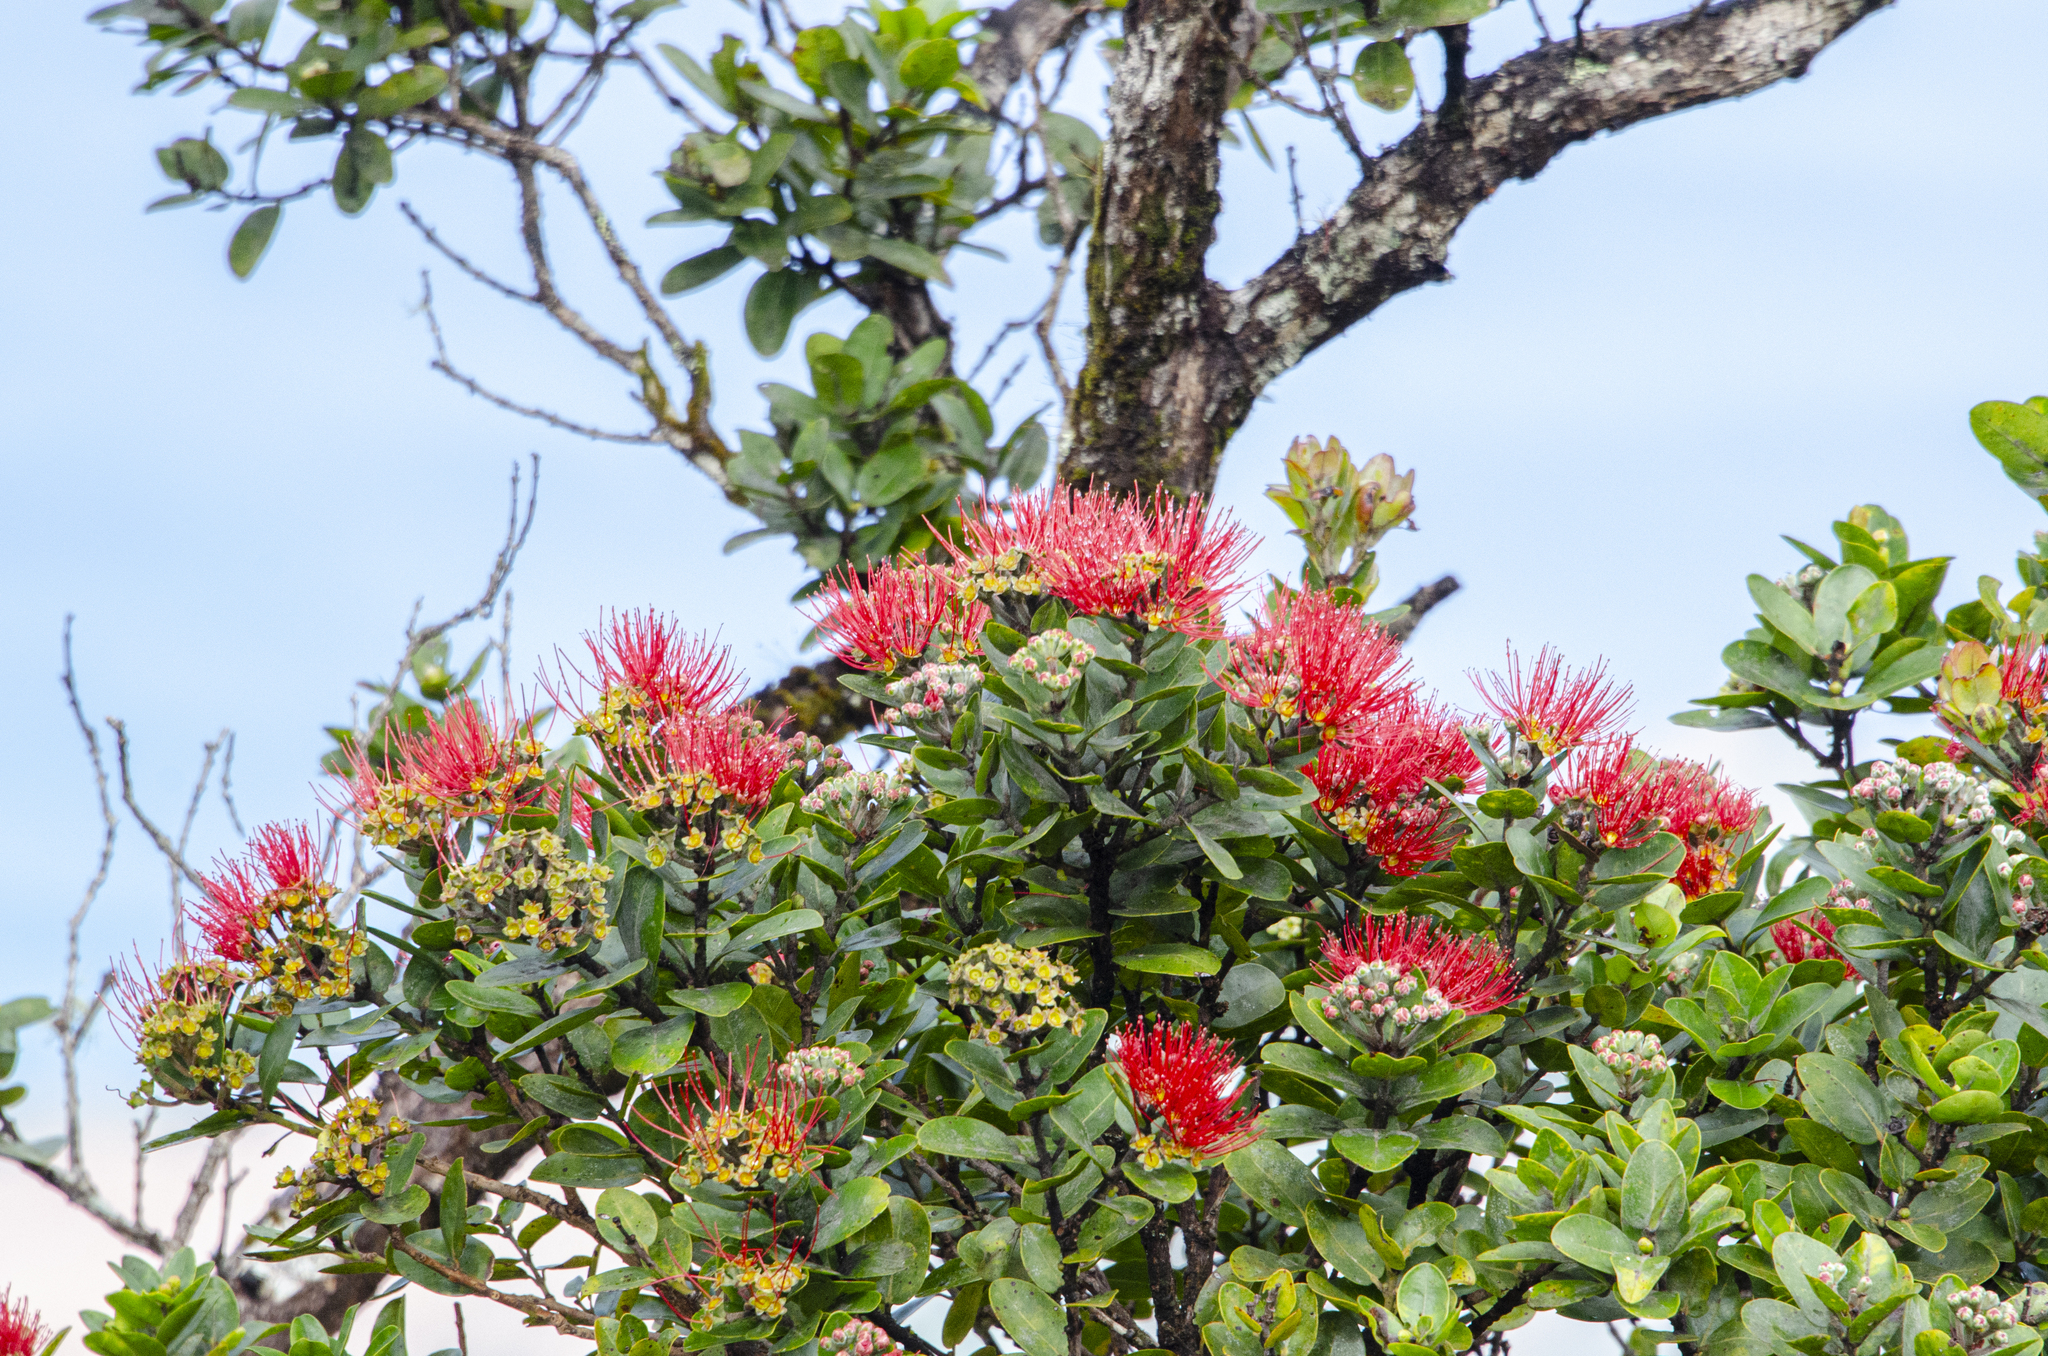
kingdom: Plantae
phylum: Tracheophyta
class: Magnoliopsida
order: Myrtales
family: Myrtaceae
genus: Metrosideros
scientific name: Metrosideros polymorpha
